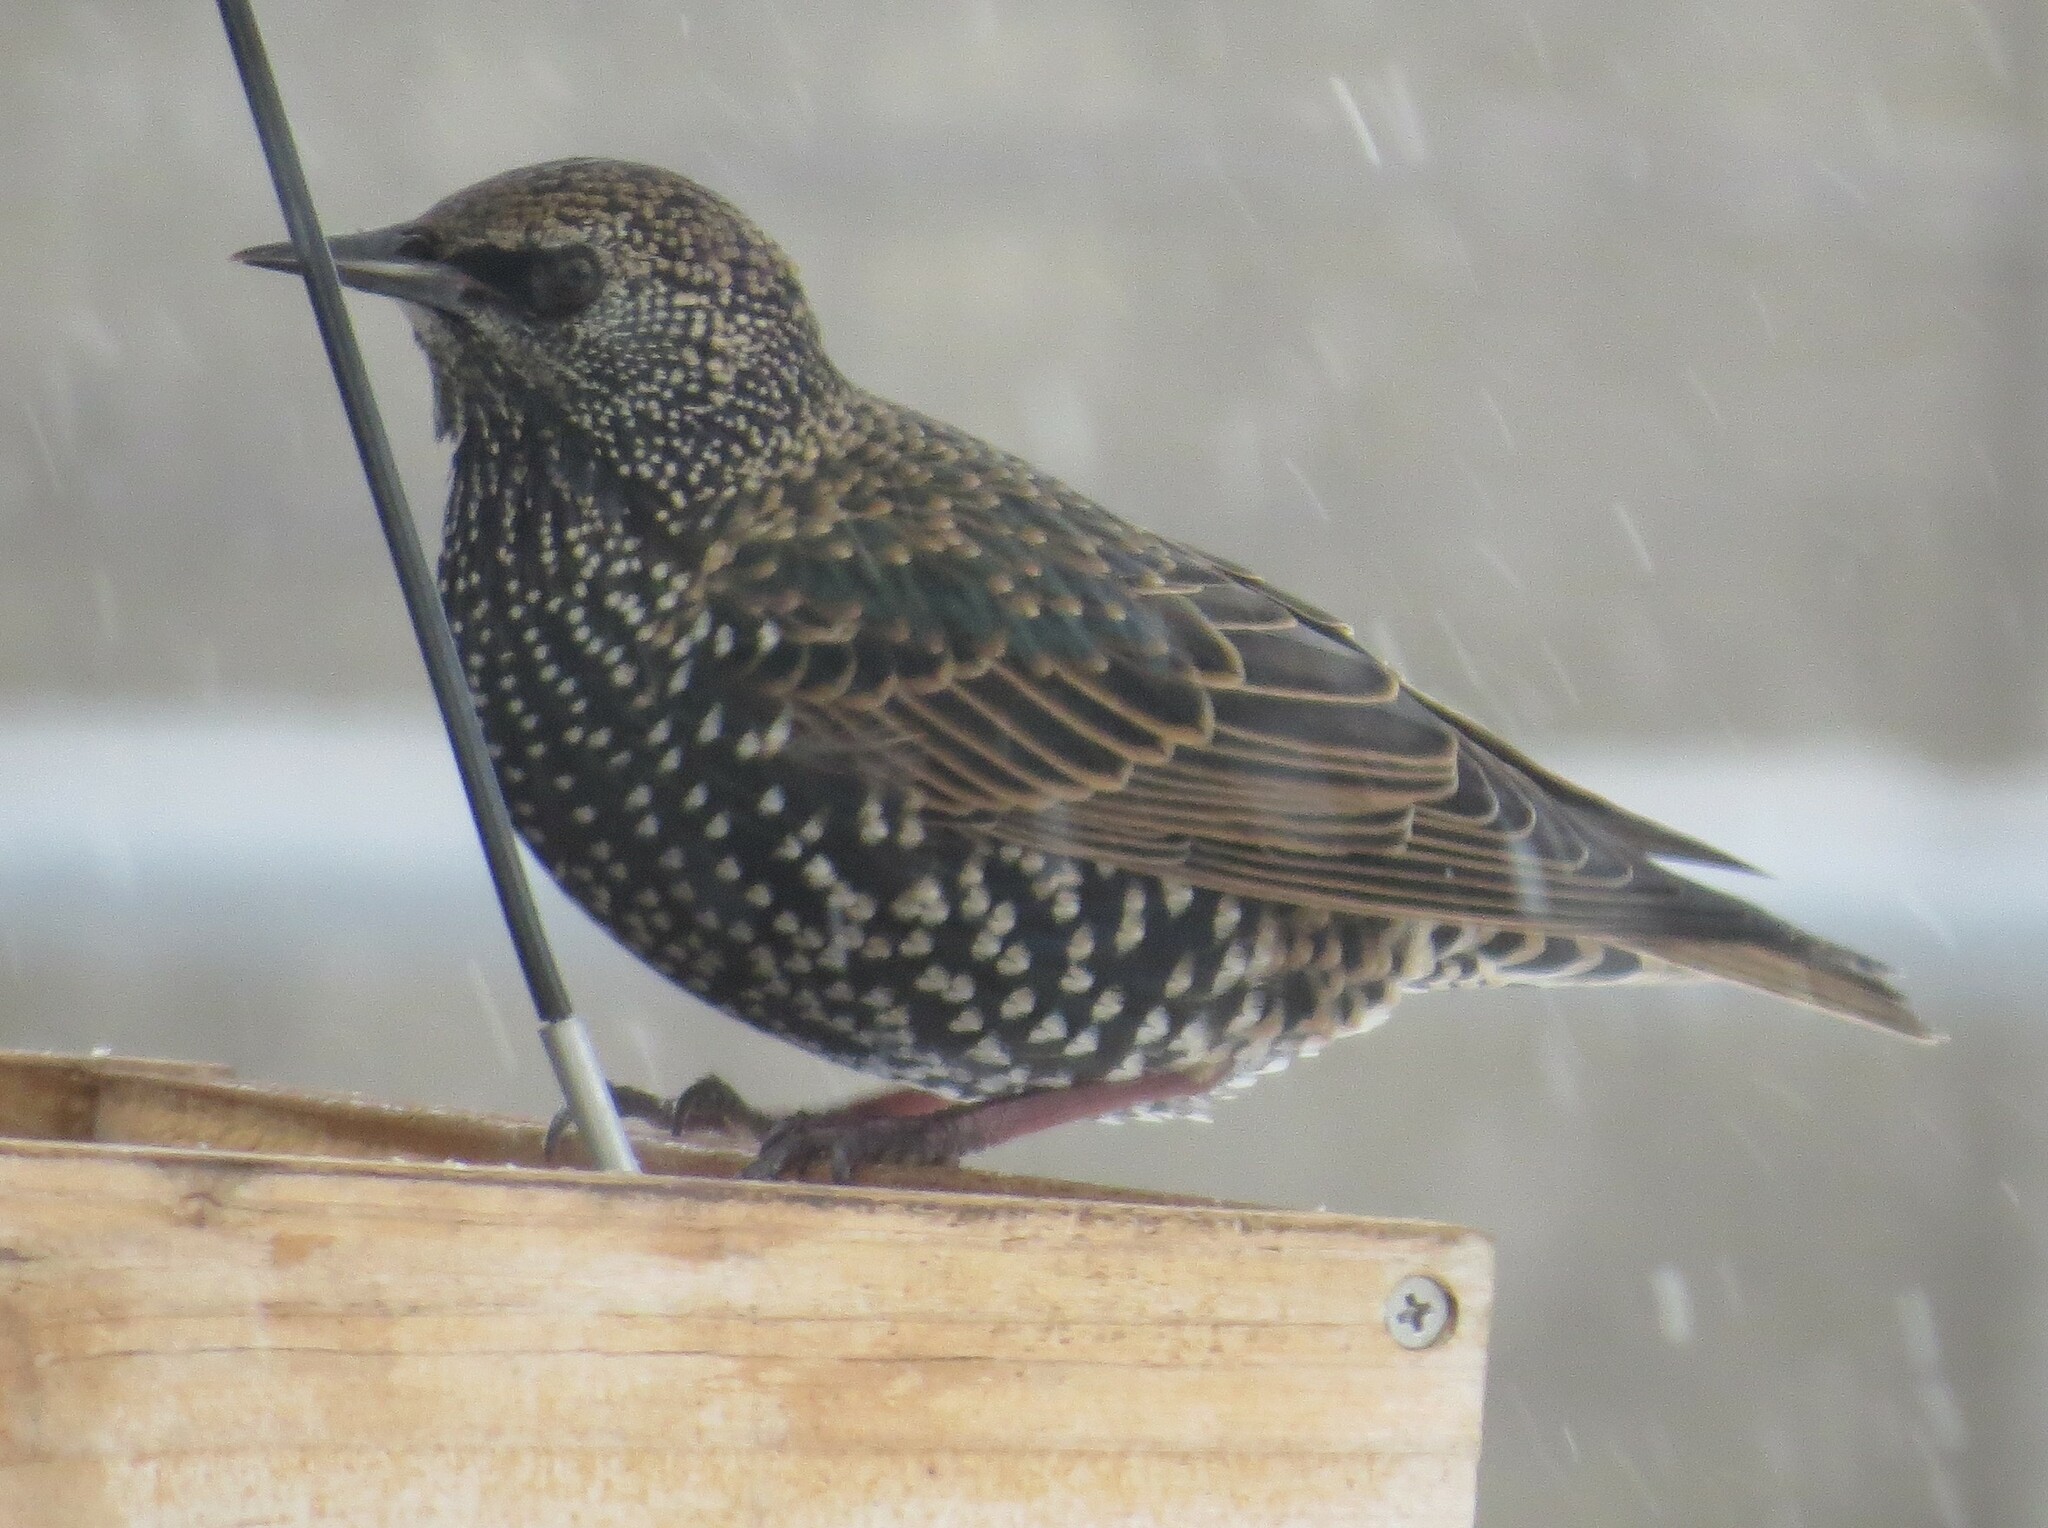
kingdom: Animalia
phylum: Chordata
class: Aves
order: Passeriformes
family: Sturnidae
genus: Sturnus
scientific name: Sturnus vulgaris
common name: Common starling
